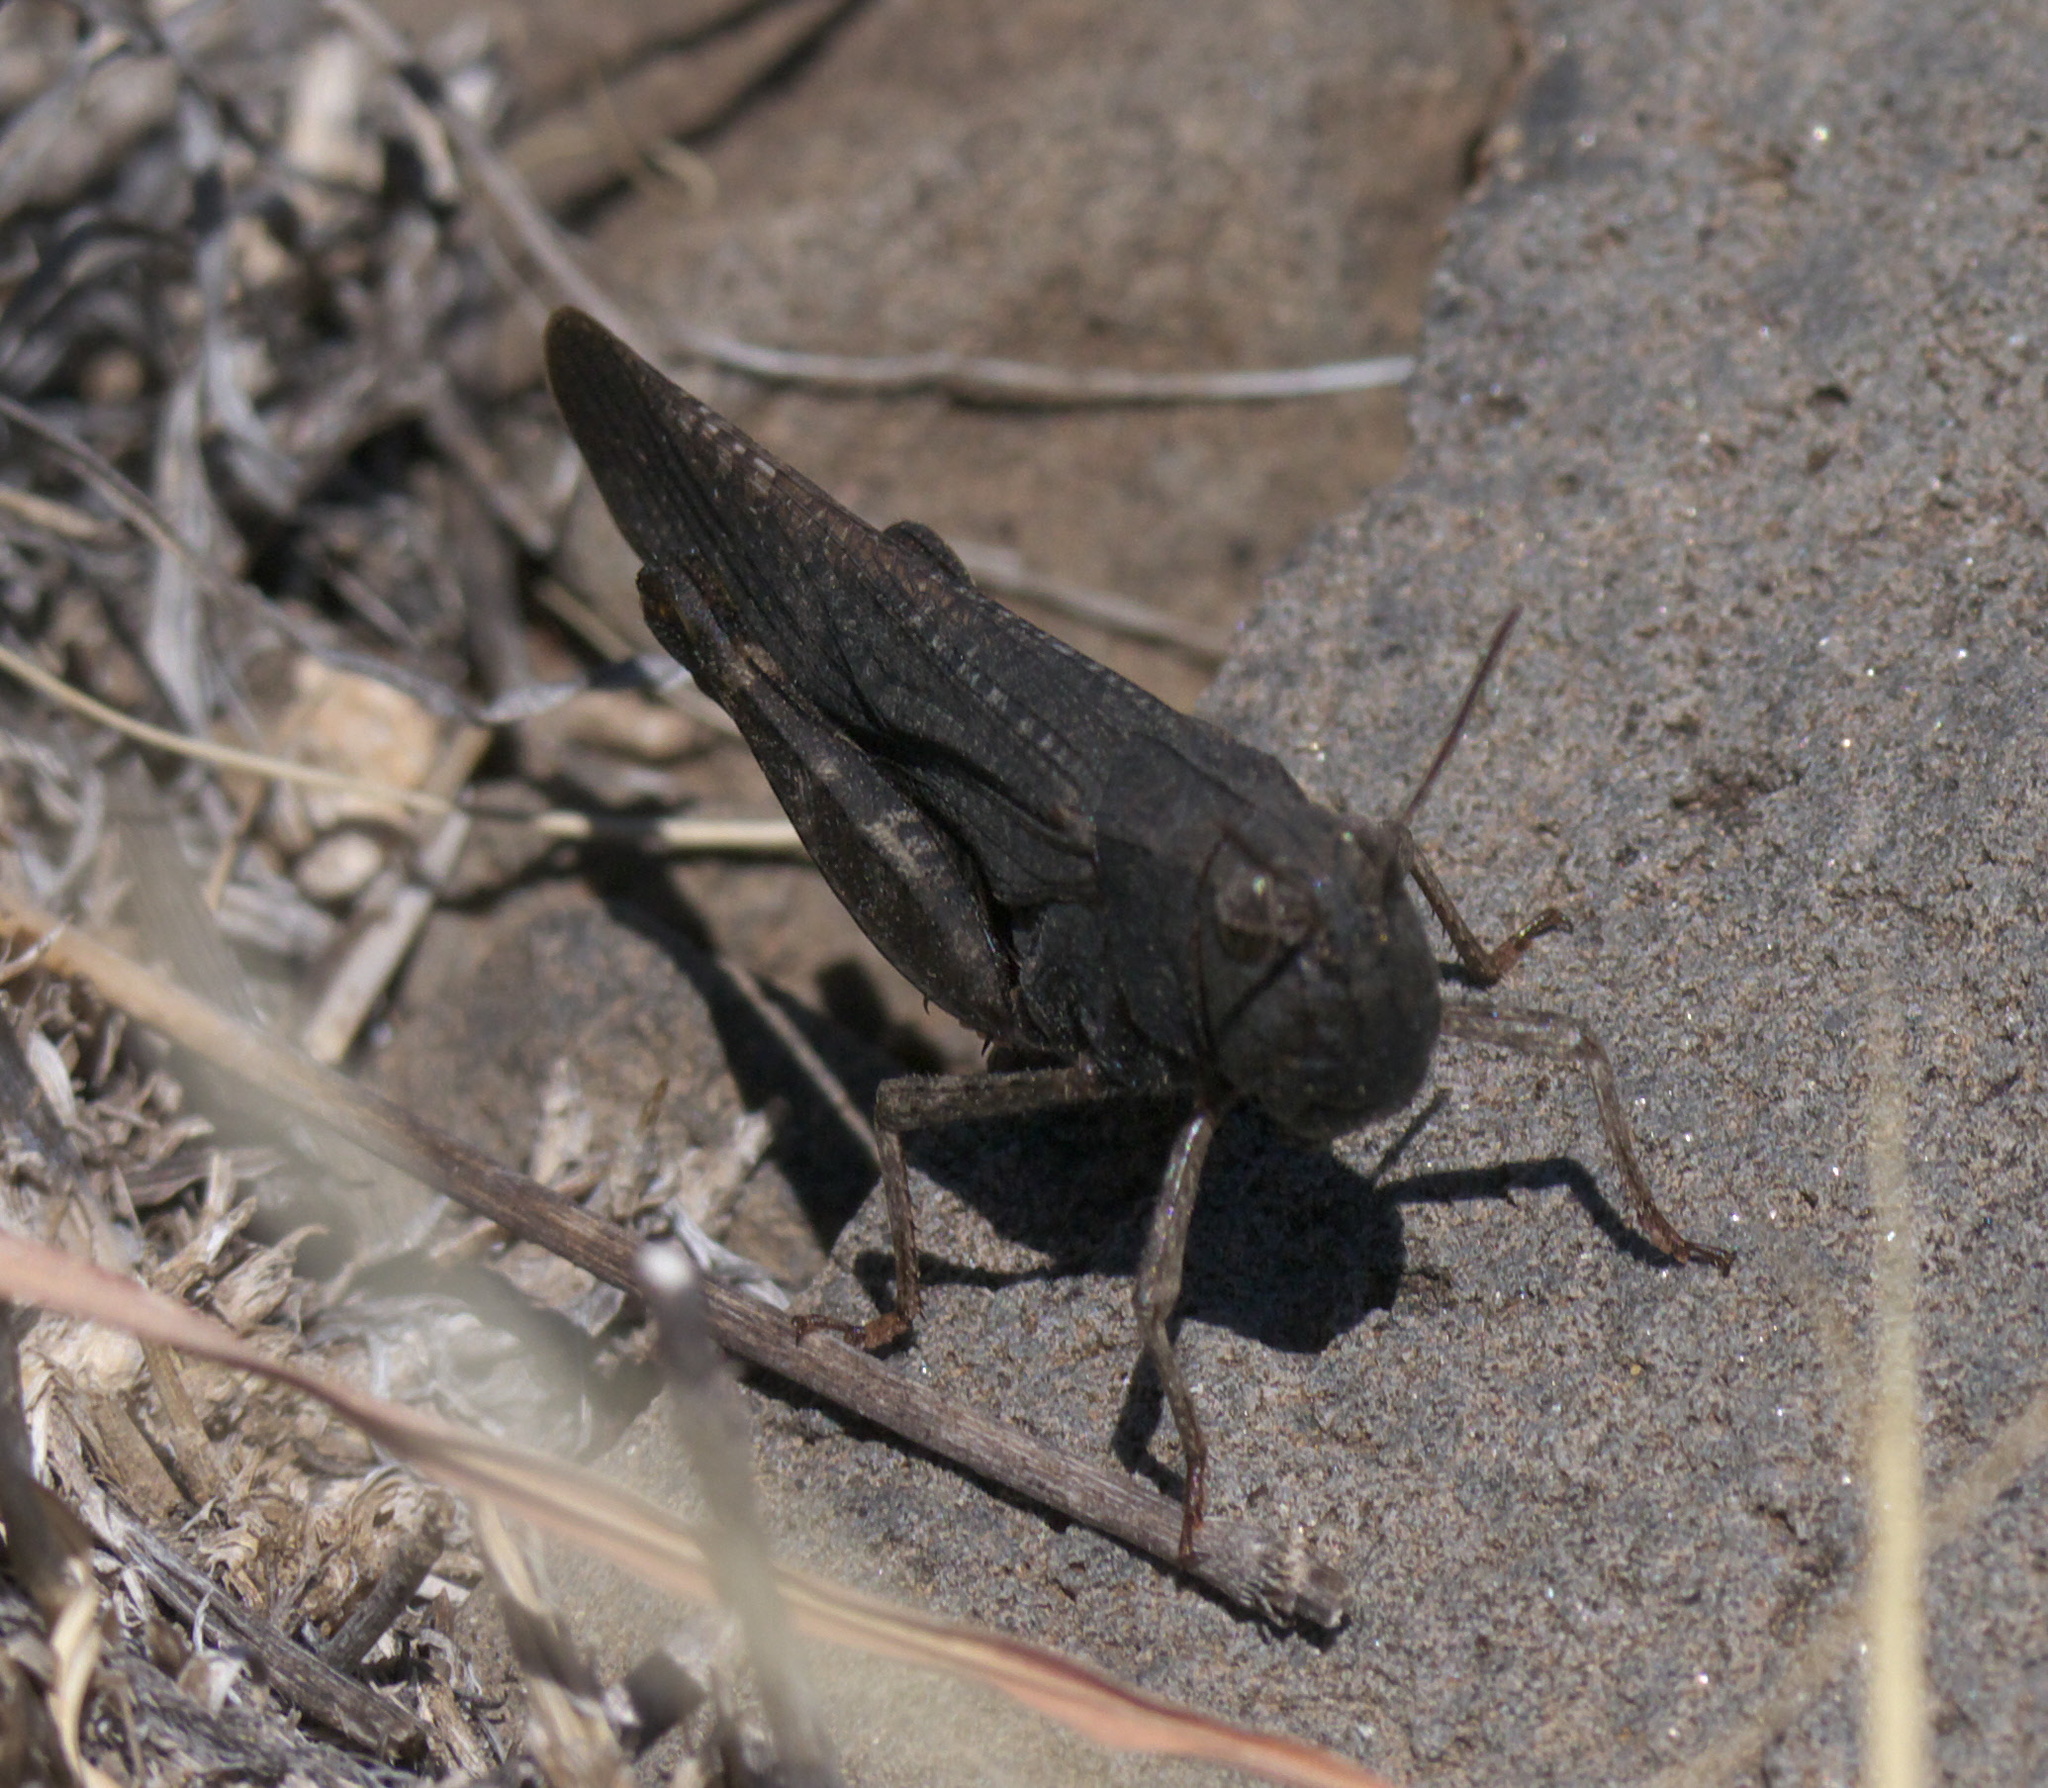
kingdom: Animalia
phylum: Arthropoda
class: Insecta
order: Orthoptera
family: Acrididae
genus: Arphia
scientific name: Arphia pseudo-nietana
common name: Red-winged grasshopper
